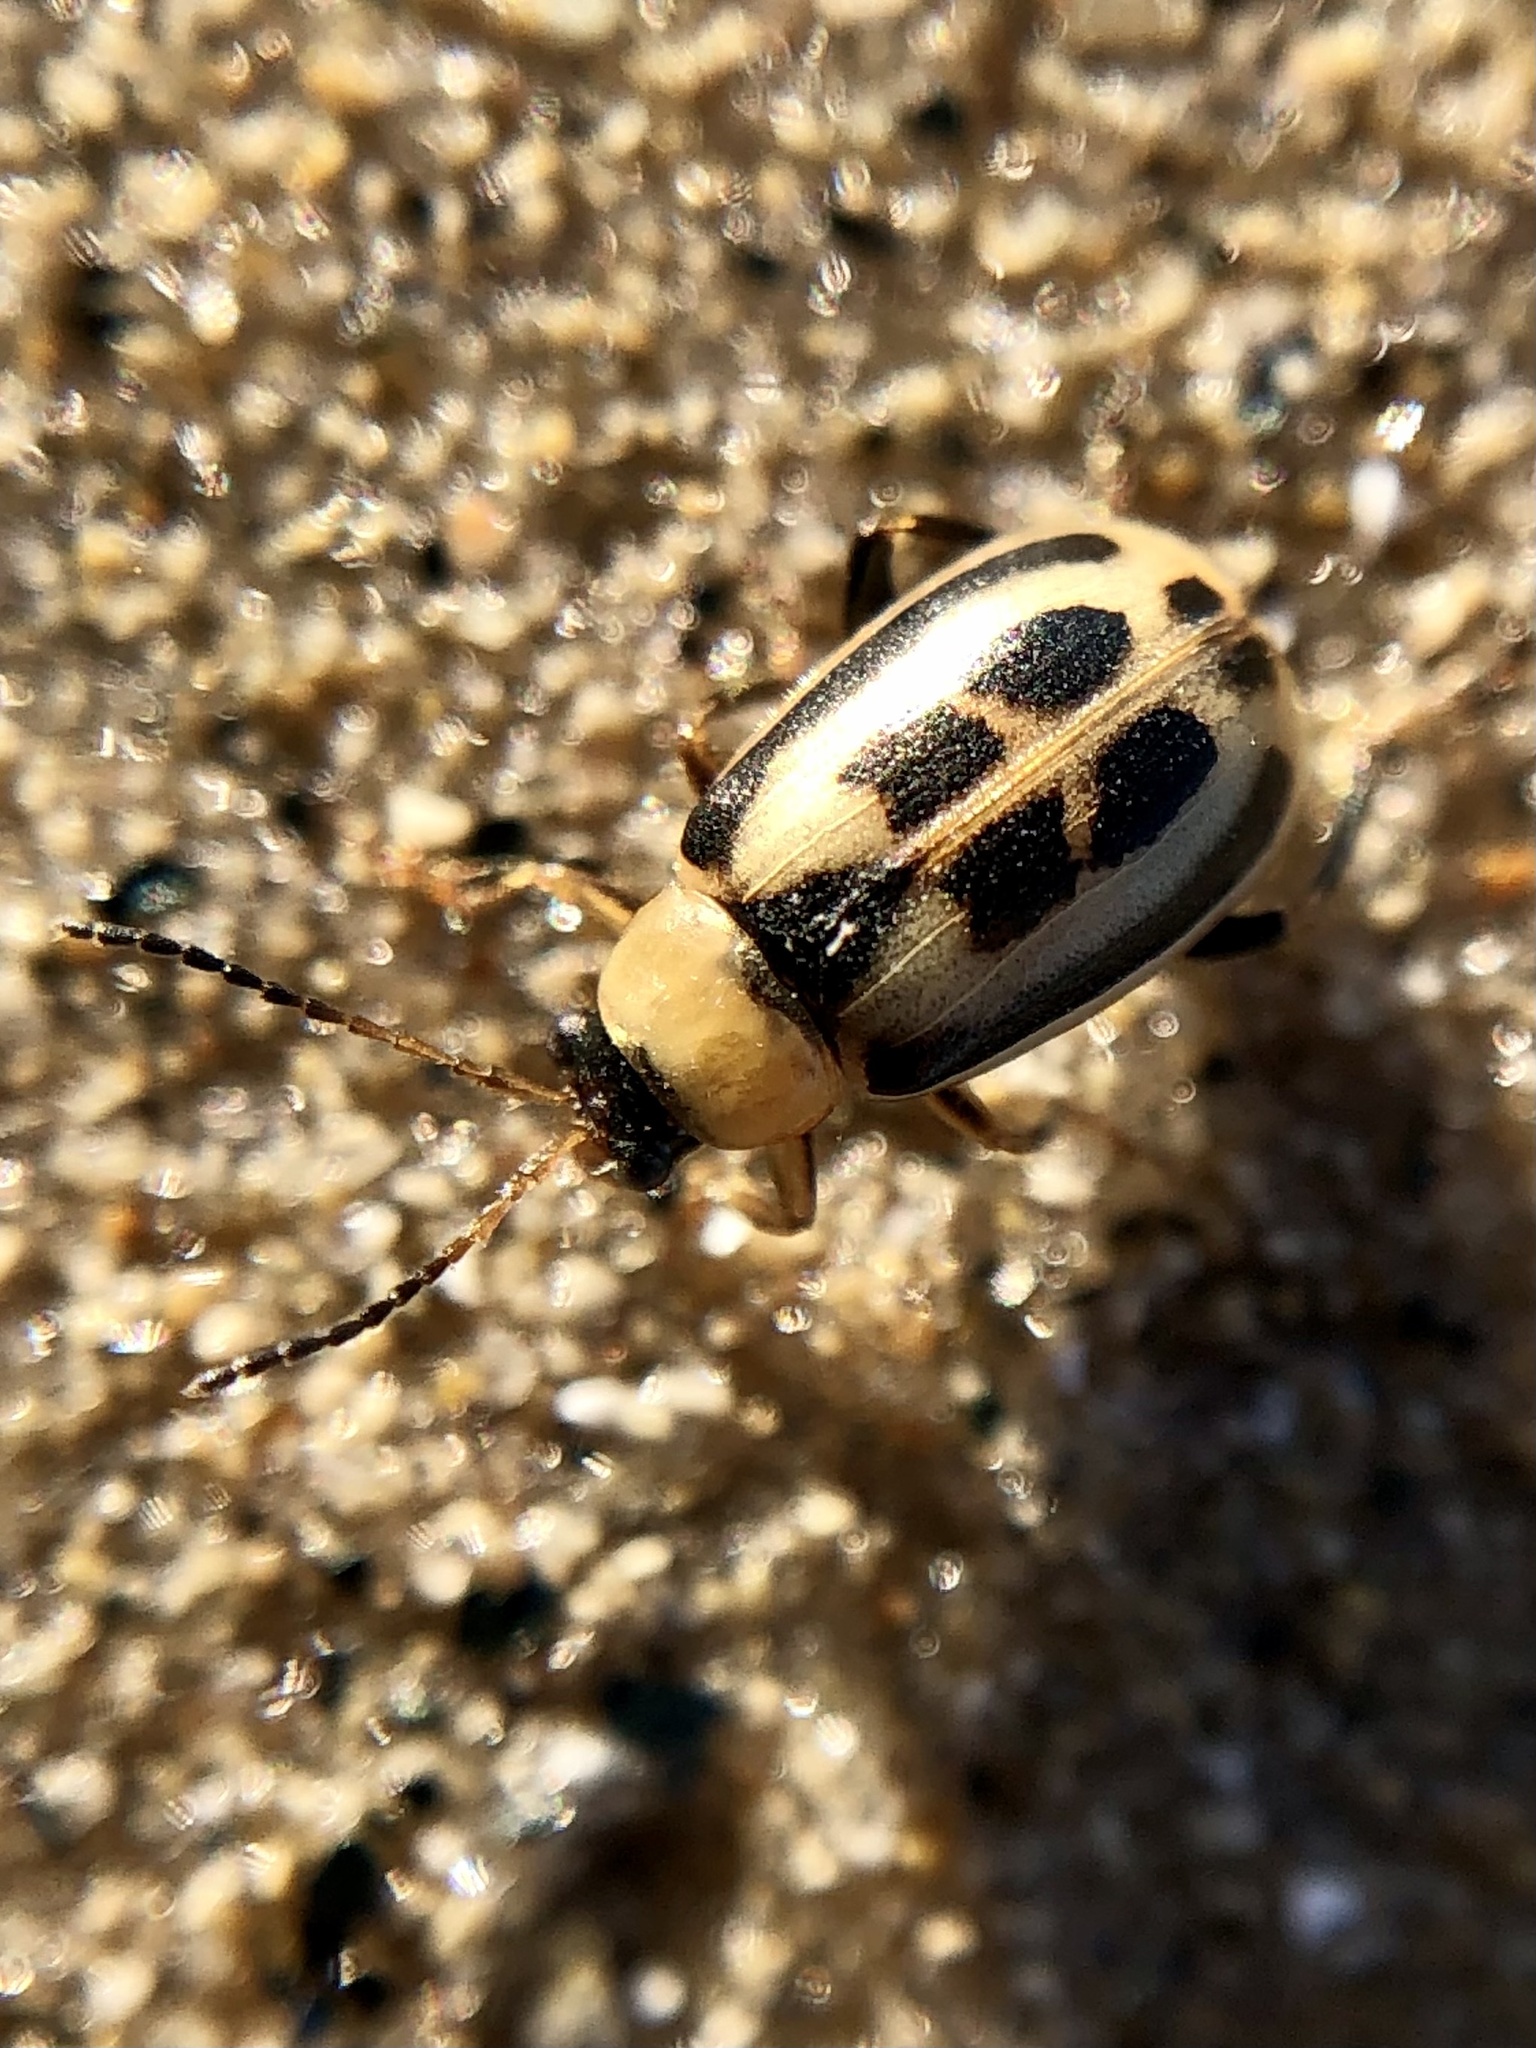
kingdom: Animalia
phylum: Arthropoda
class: Insecta
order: Coleoptera
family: Chrysomelidae
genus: Cerotoma
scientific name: Cerotoma trifurcata
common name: Bean leaf beetle
